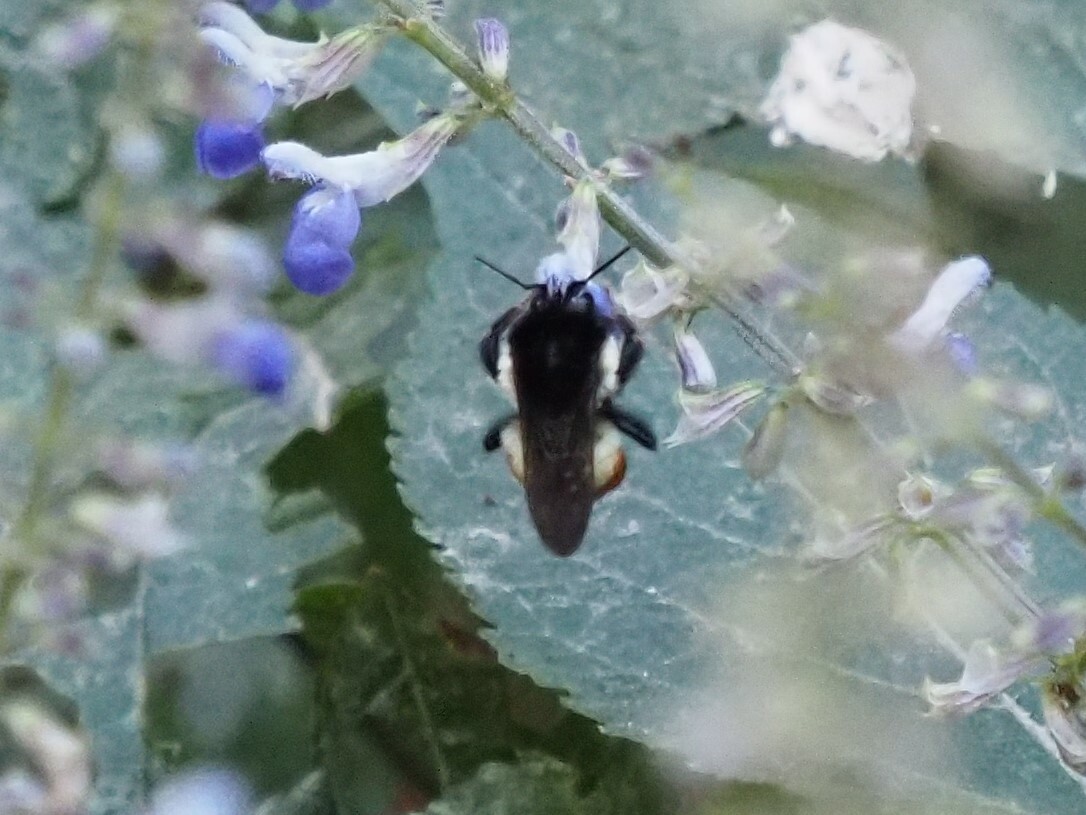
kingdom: Animalia
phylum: Arthropoda
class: Insecta
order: Hymenoptera
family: Apidae
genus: Bombus
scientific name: Bombus ephippiatus
